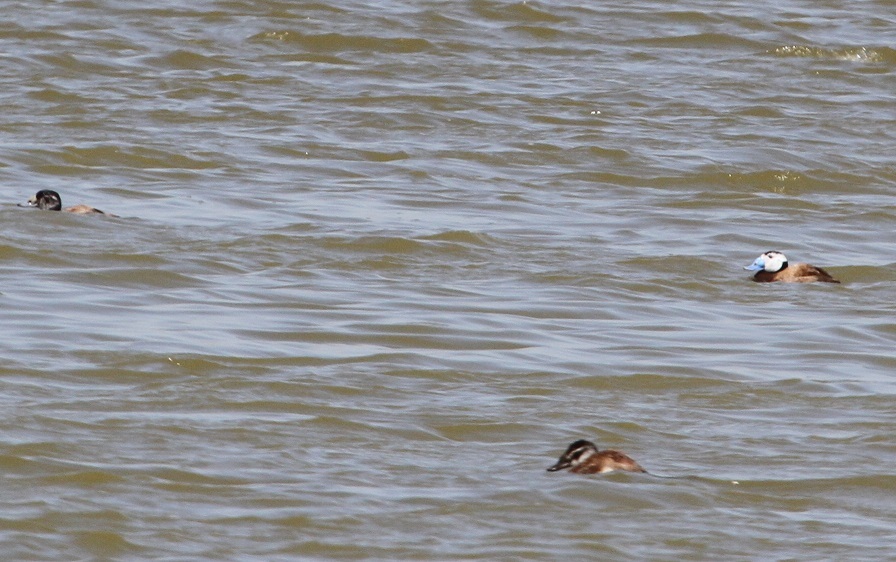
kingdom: Animalia
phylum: Chordata
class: Aves
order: Anseriformes
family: Anatidae
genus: Oxyura
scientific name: Oxyura leucocephala
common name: White-headed duck
